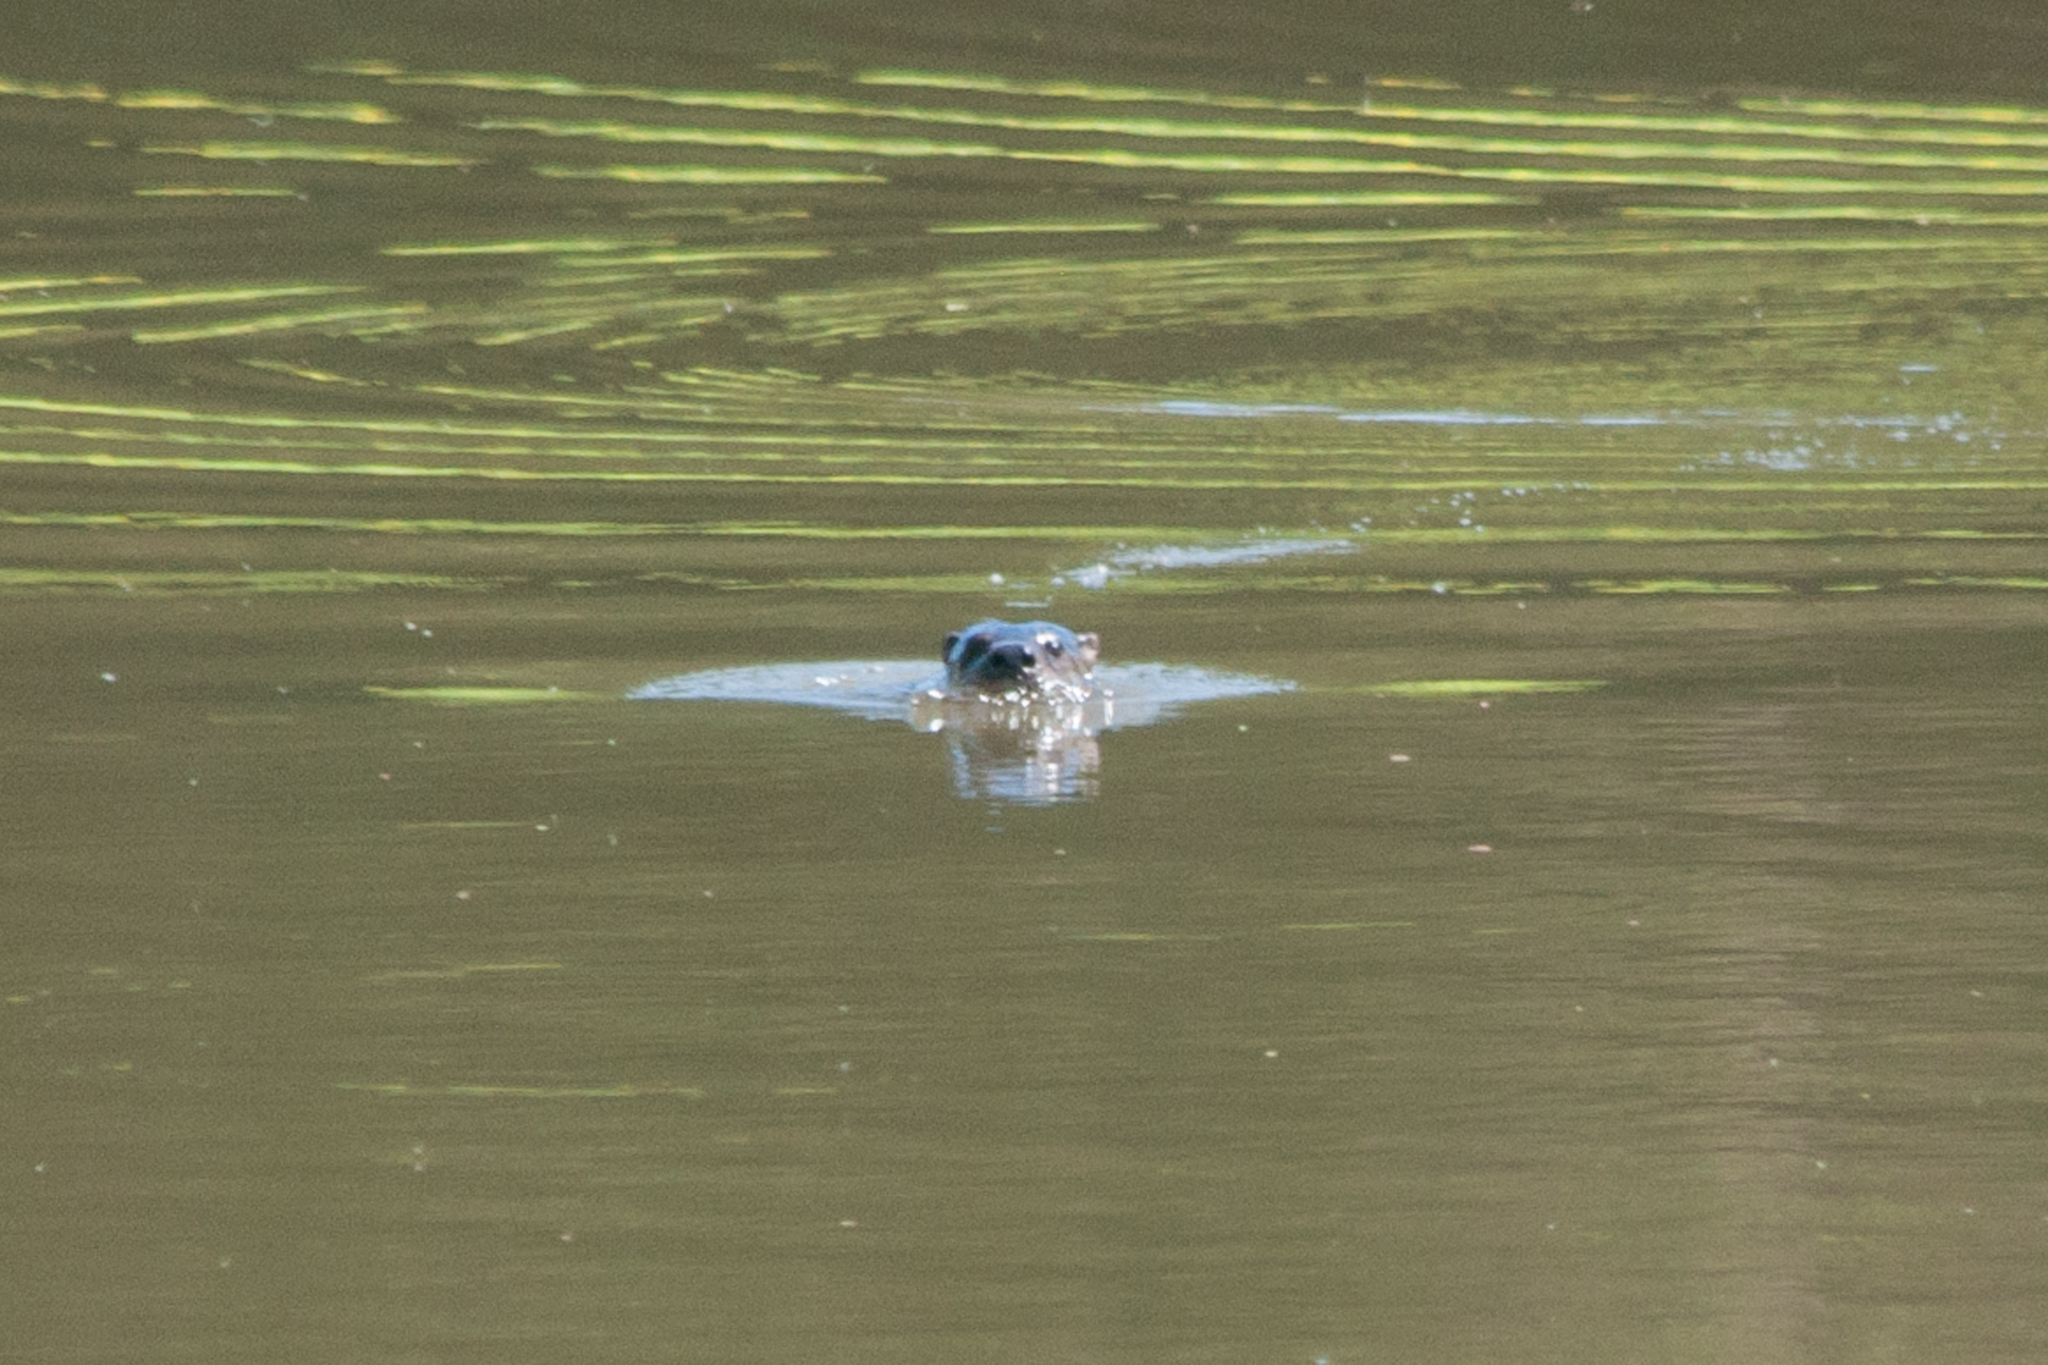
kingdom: Animalia
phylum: Chordata
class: Mammalia
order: Carnivora
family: Mustelidae
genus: Lontra
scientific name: Lontra canadensis
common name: North american river otter
